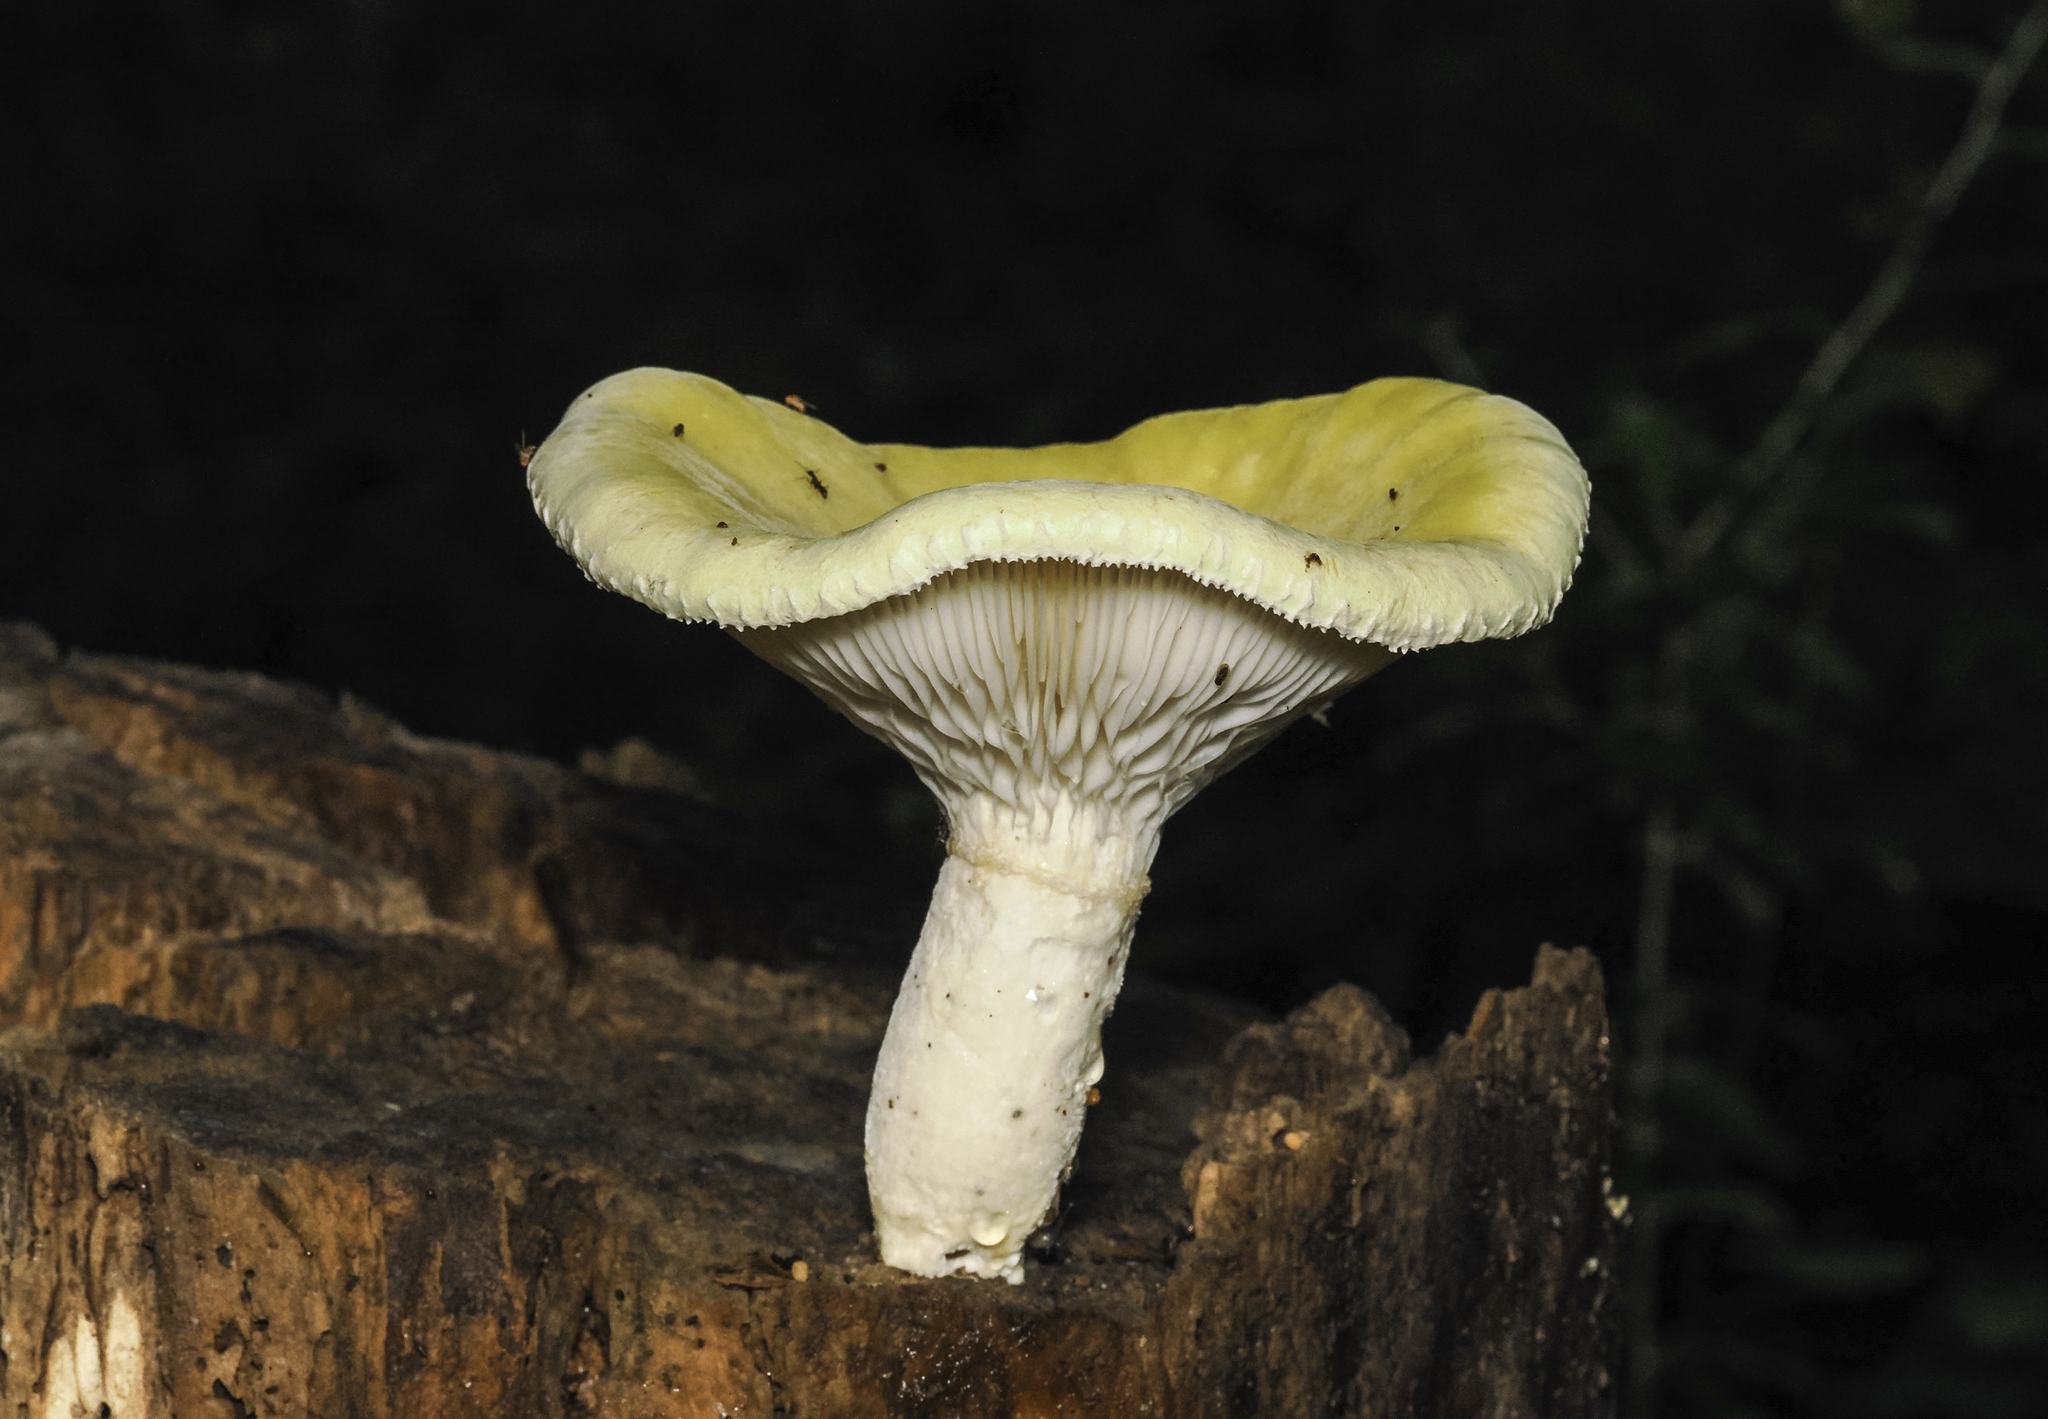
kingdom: Fungi
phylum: Basidiomycota
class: Agaricomycetes
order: Polyporales
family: Polyporaceae
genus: Lentinus
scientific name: Lentinus levis
